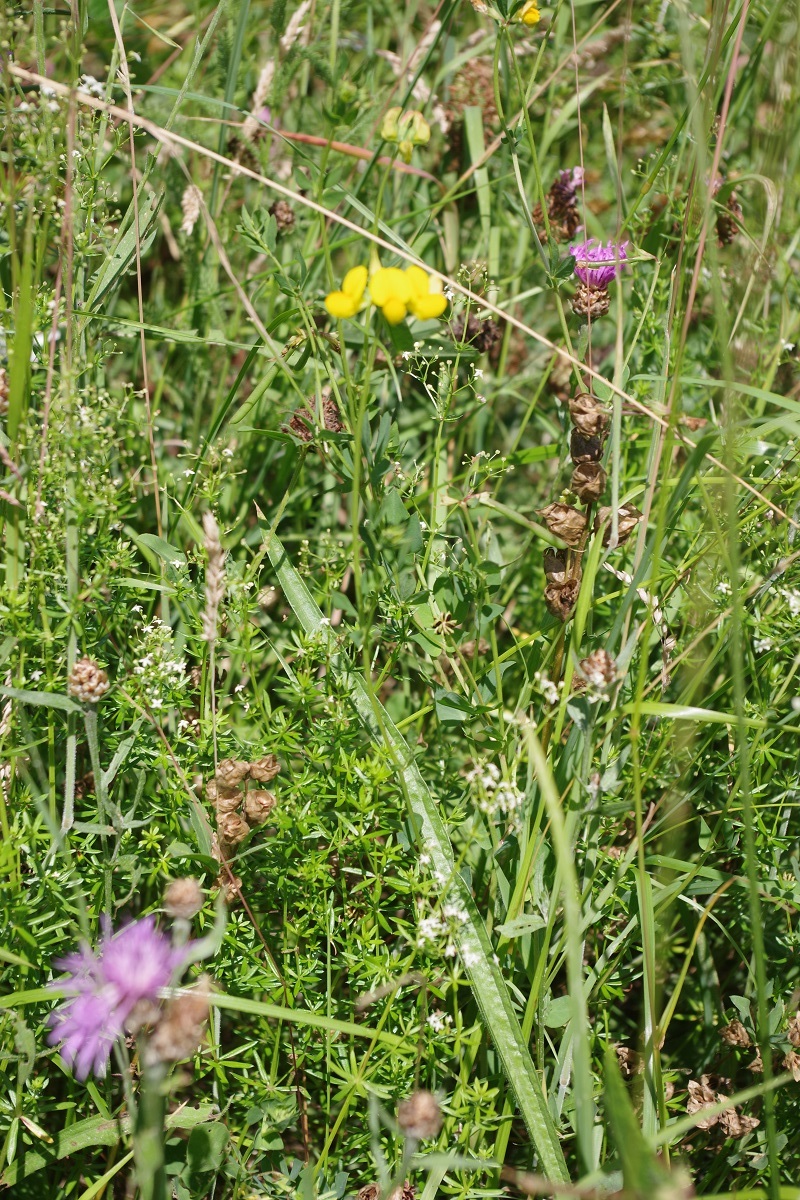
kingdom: Plantae
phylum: Tracheophyta
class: Magnoliopsida
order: Fabales
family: Fabaceae
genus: Lotus
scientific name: Lotus corniculatus
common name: Common bird's-foot-trefoil
